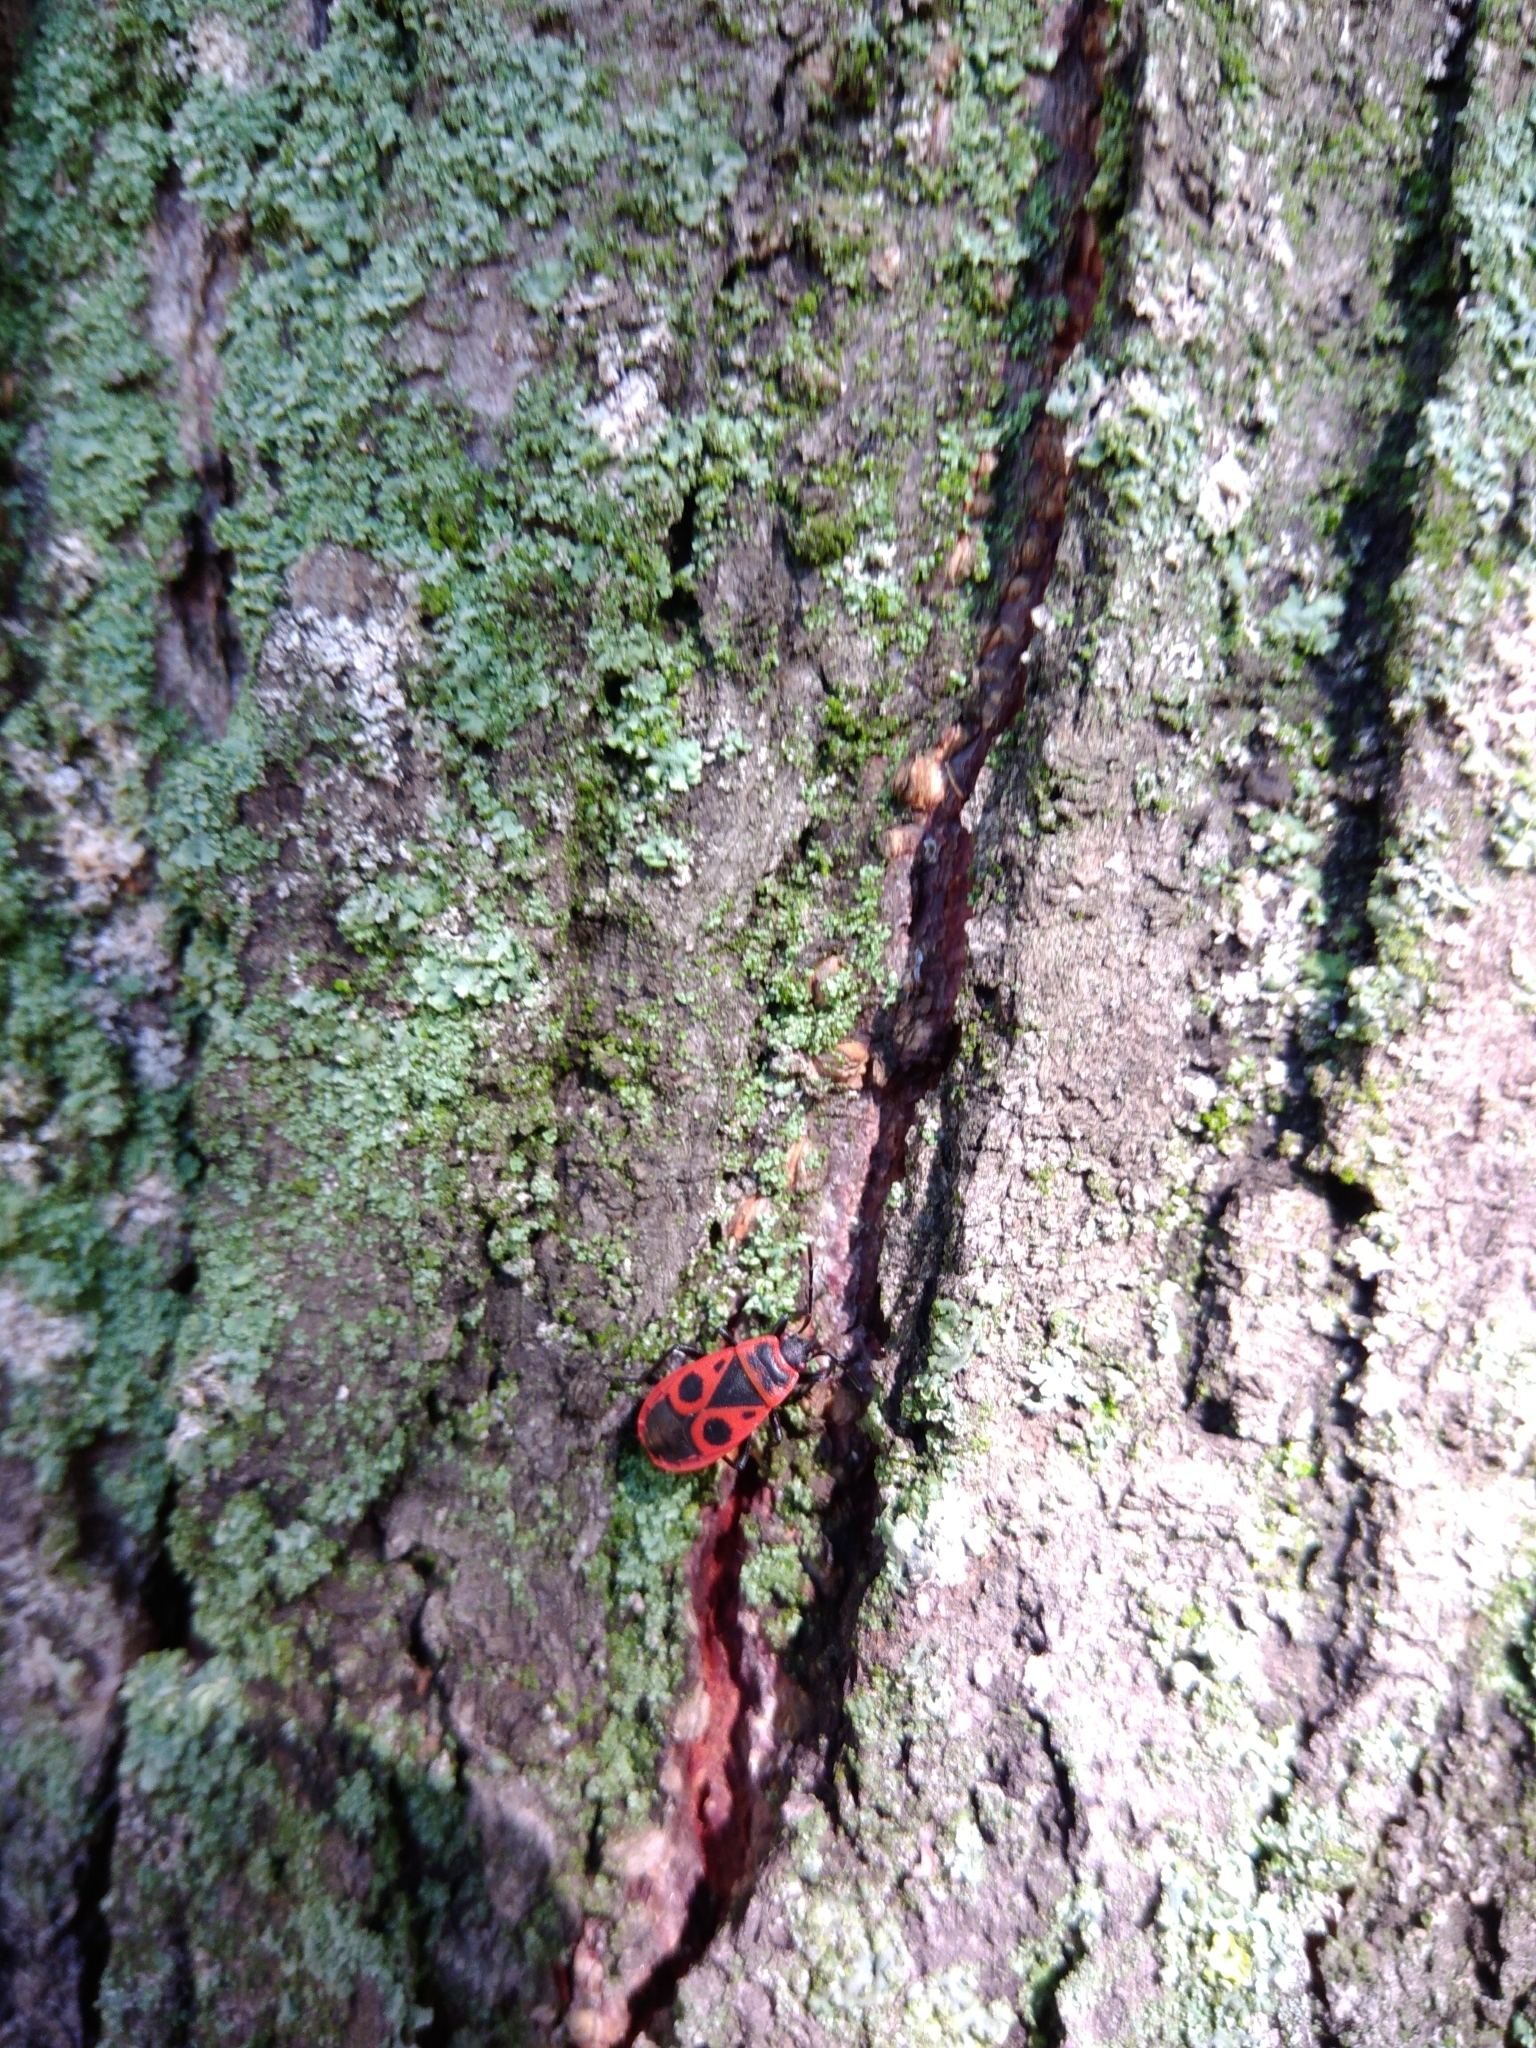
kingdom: Animalia
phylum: Arthropoda
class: Insecta
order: Hemiptera
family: Pyrrhocoridae
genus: Pyrrhocoris
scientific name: Pyrrhocoris apterus
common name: Firebug
